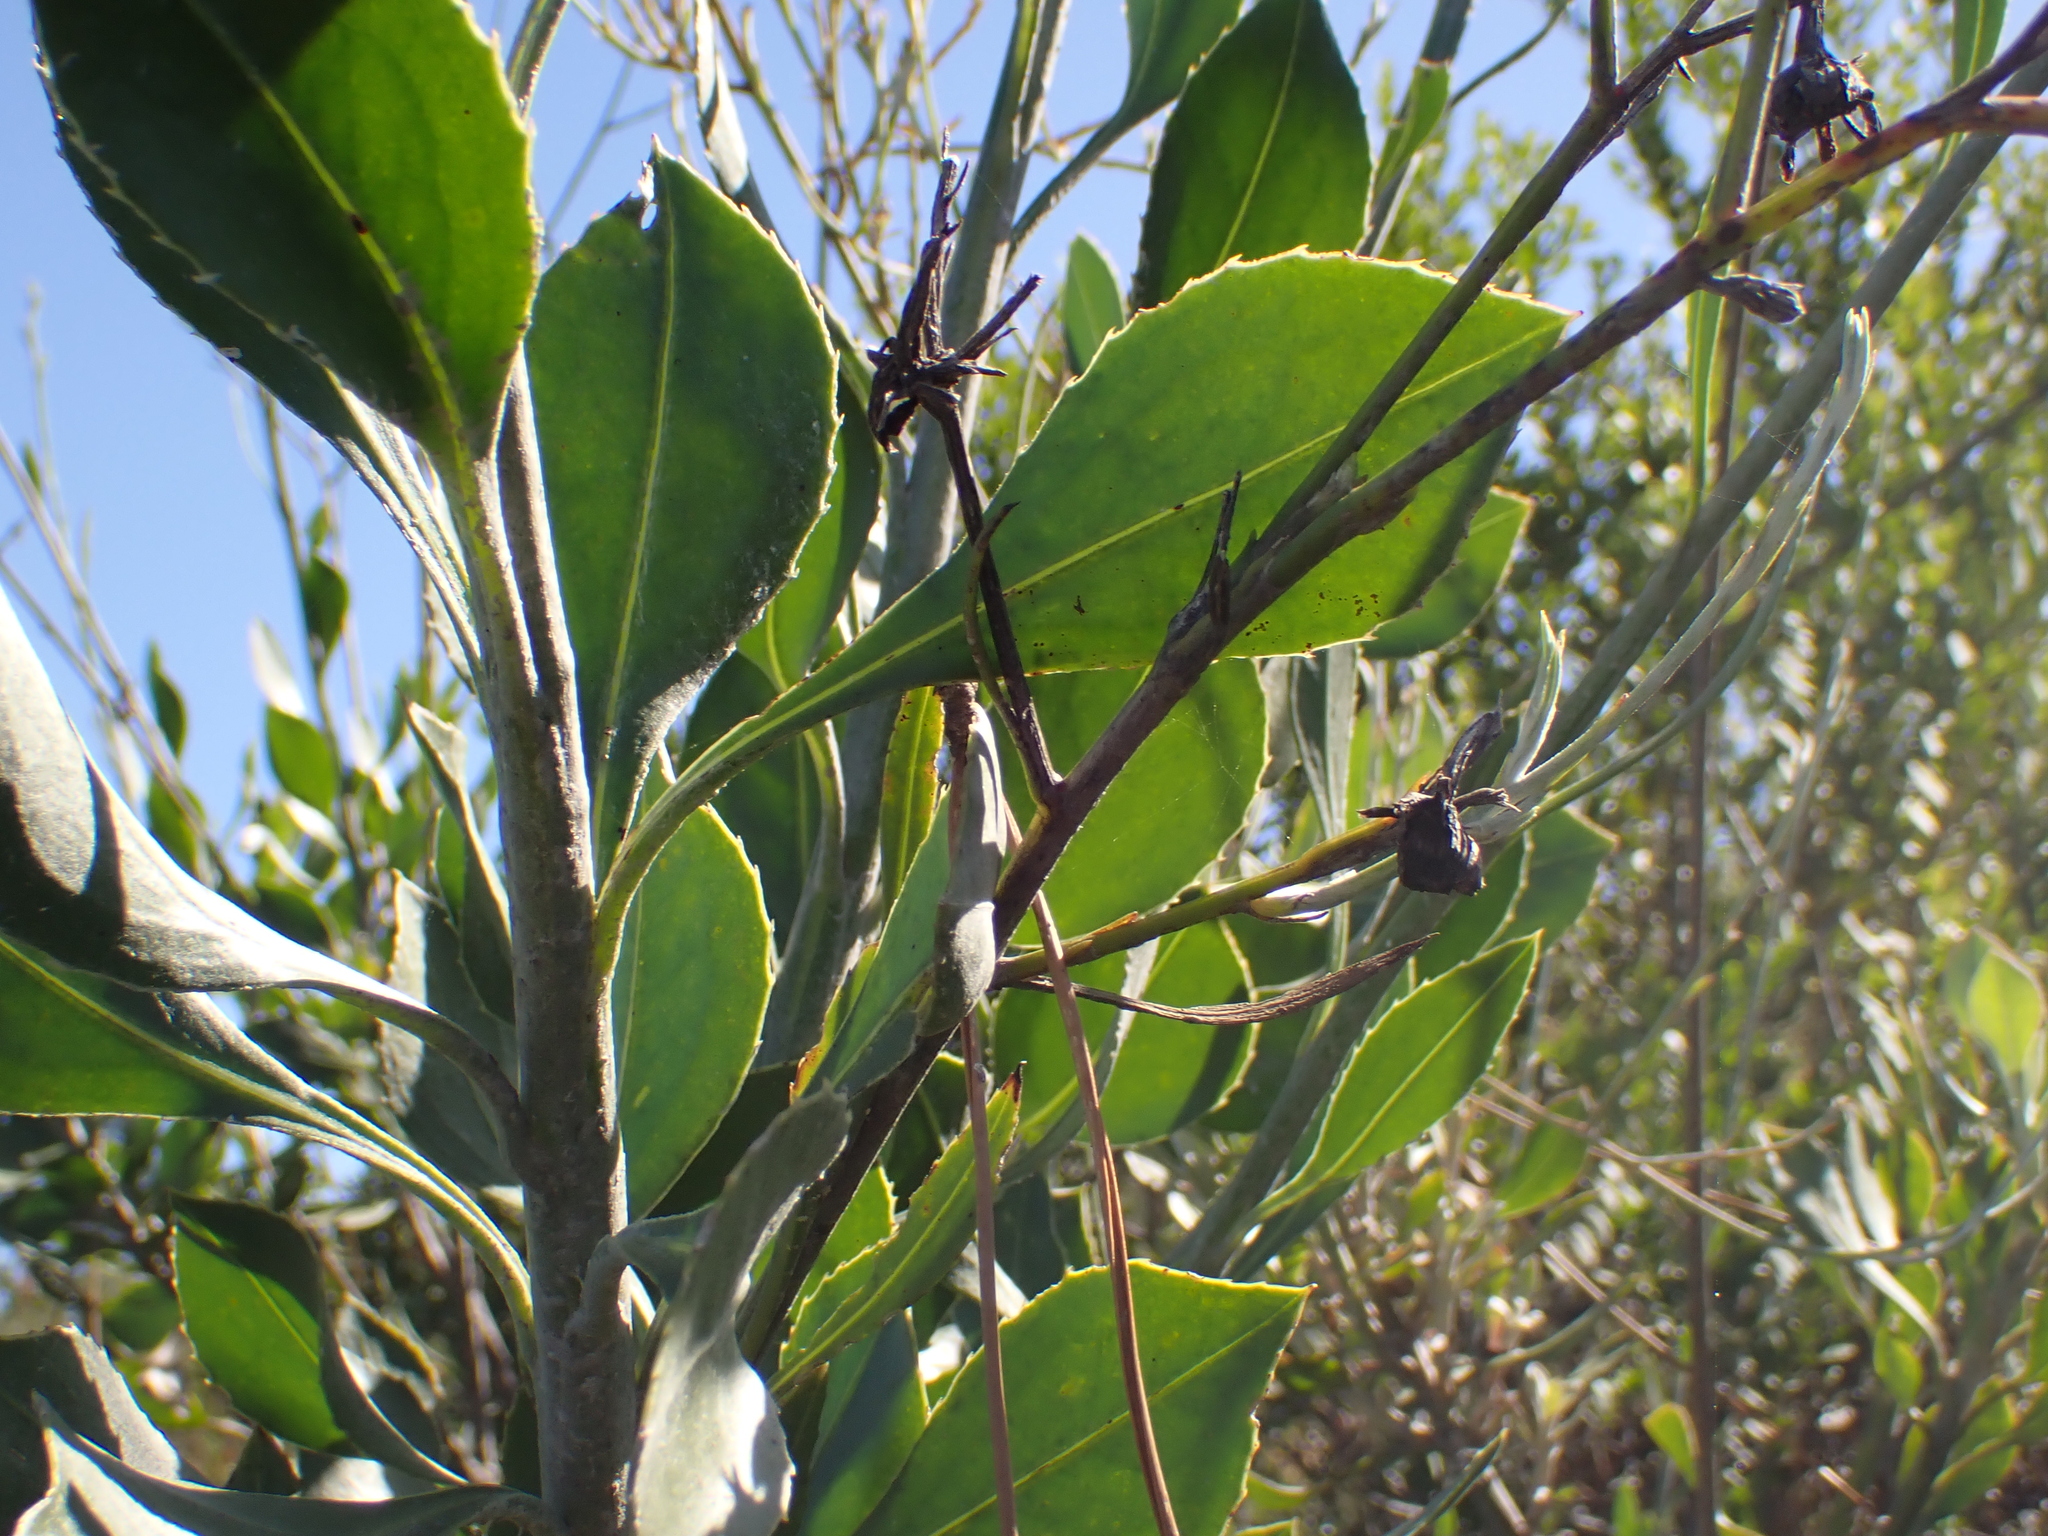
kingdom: Plantae
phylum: Tracheophyta
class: Magnoliopsida
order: Asterales
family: Asteraceae
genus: Osteospermum
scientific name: Osteospermum junceum
